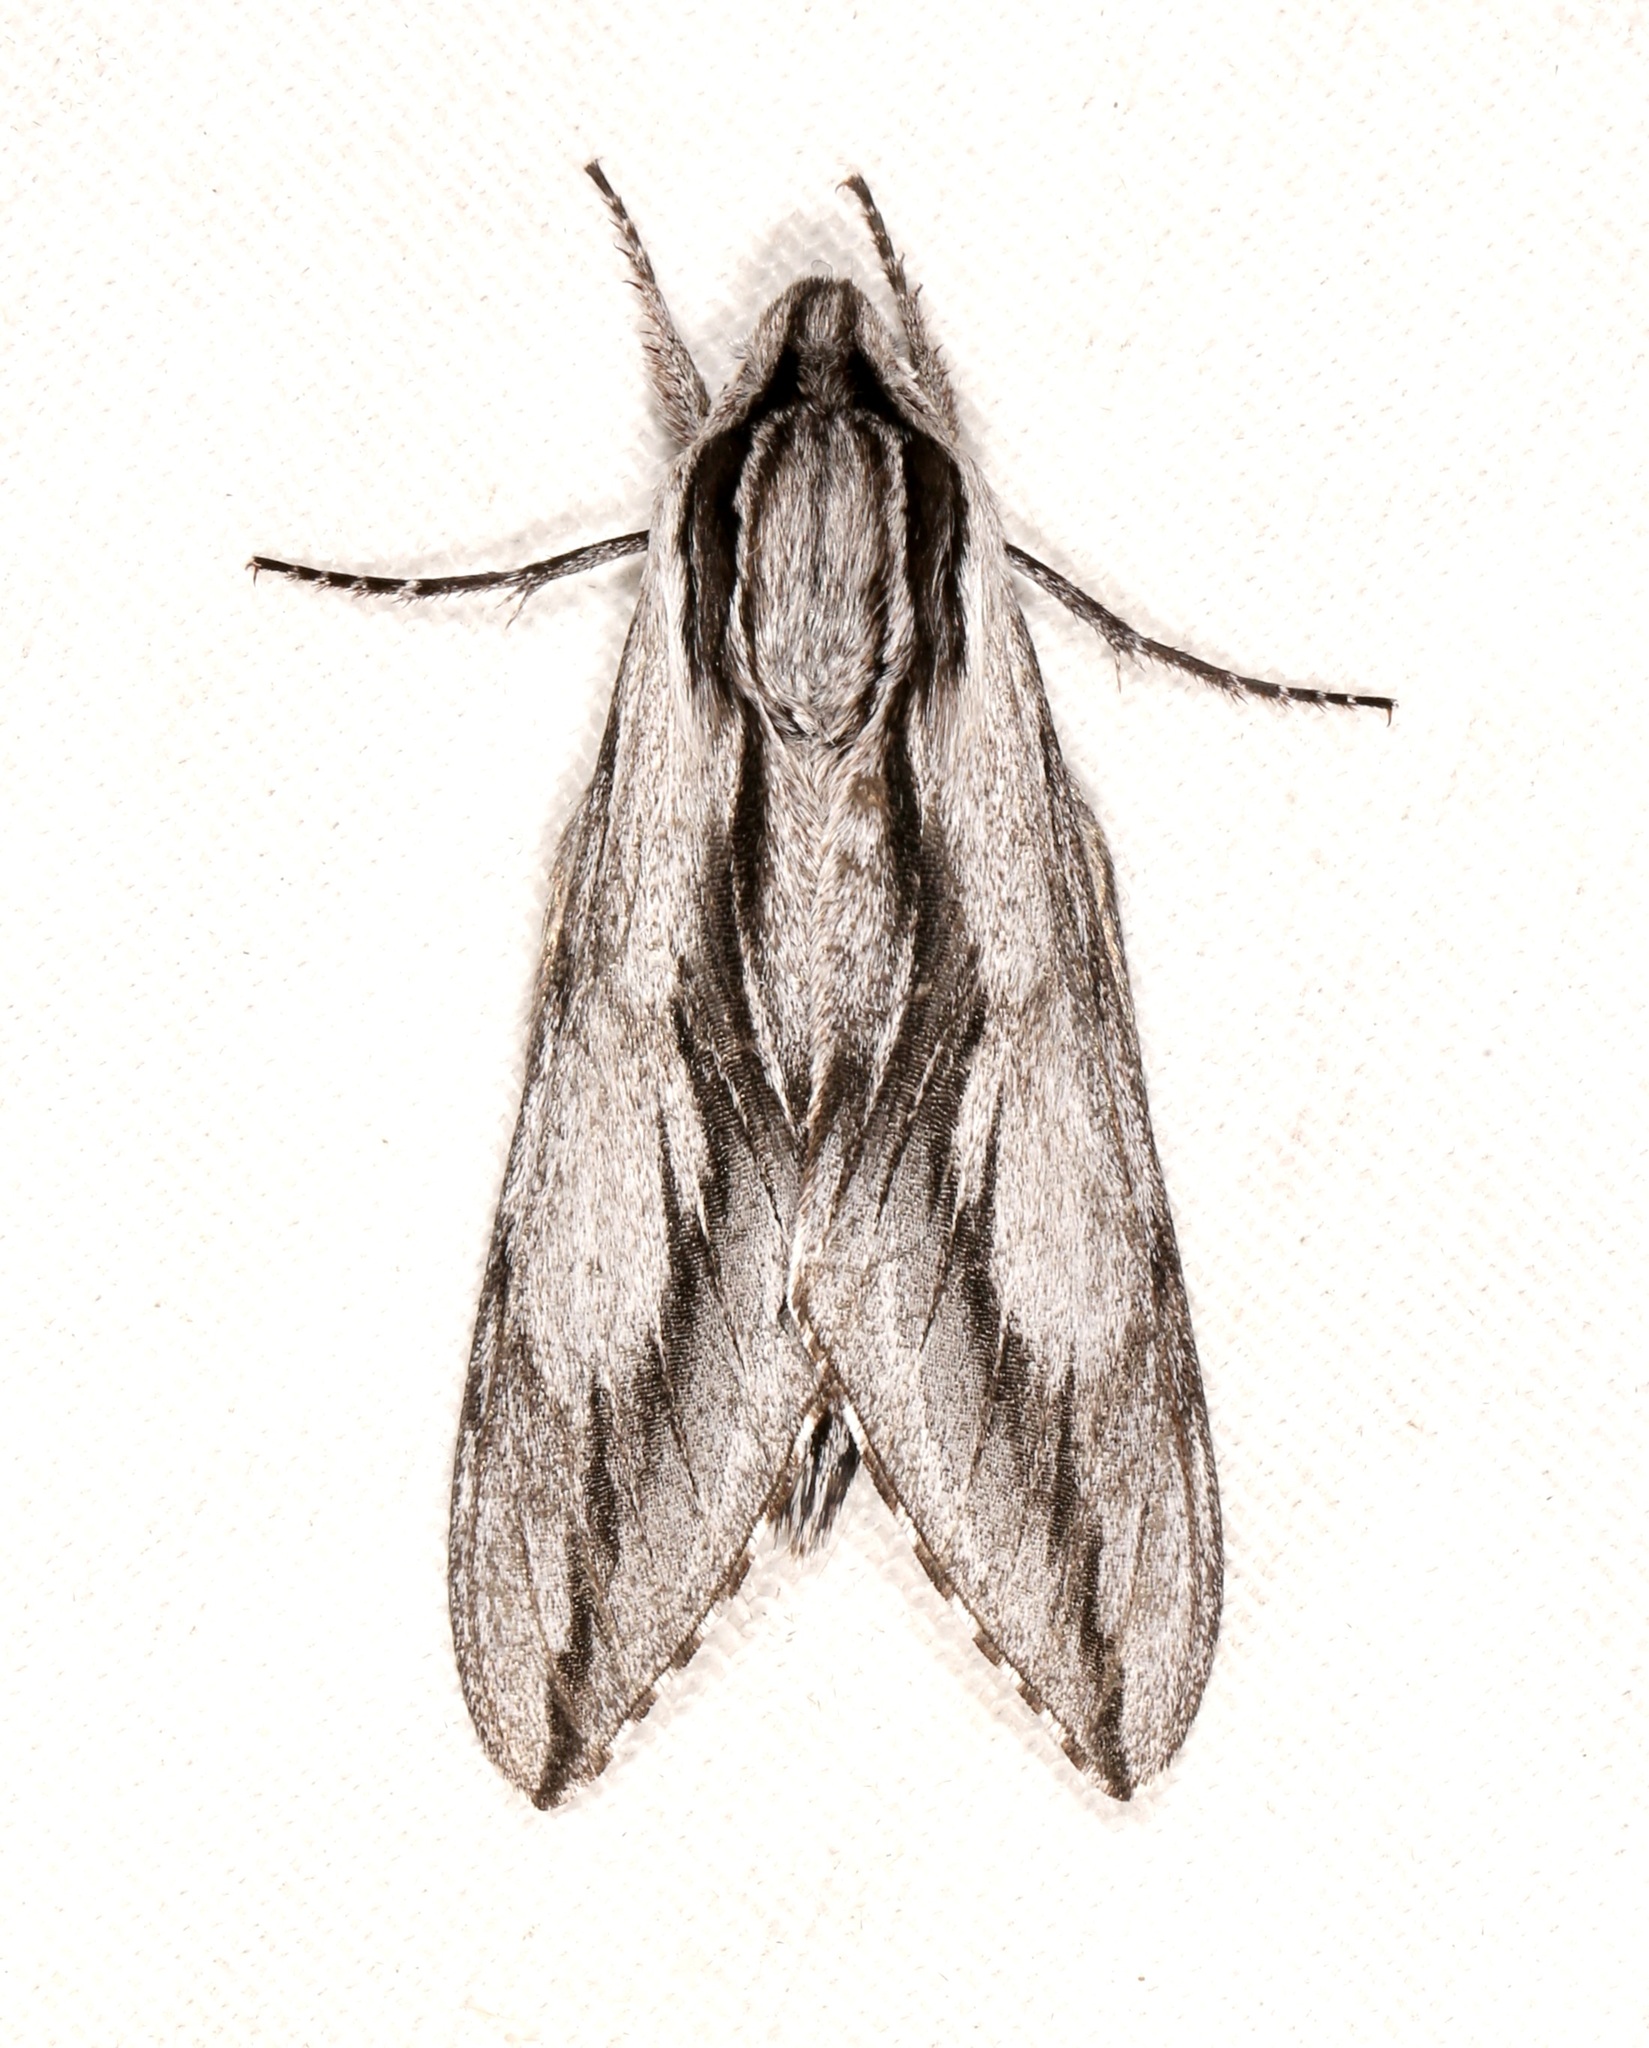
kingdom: Animalia
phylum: Arthropoda
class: Insecta
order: Lepidoptera
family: Sphingidae
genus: Sphinx
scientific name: Sphinx dollii
